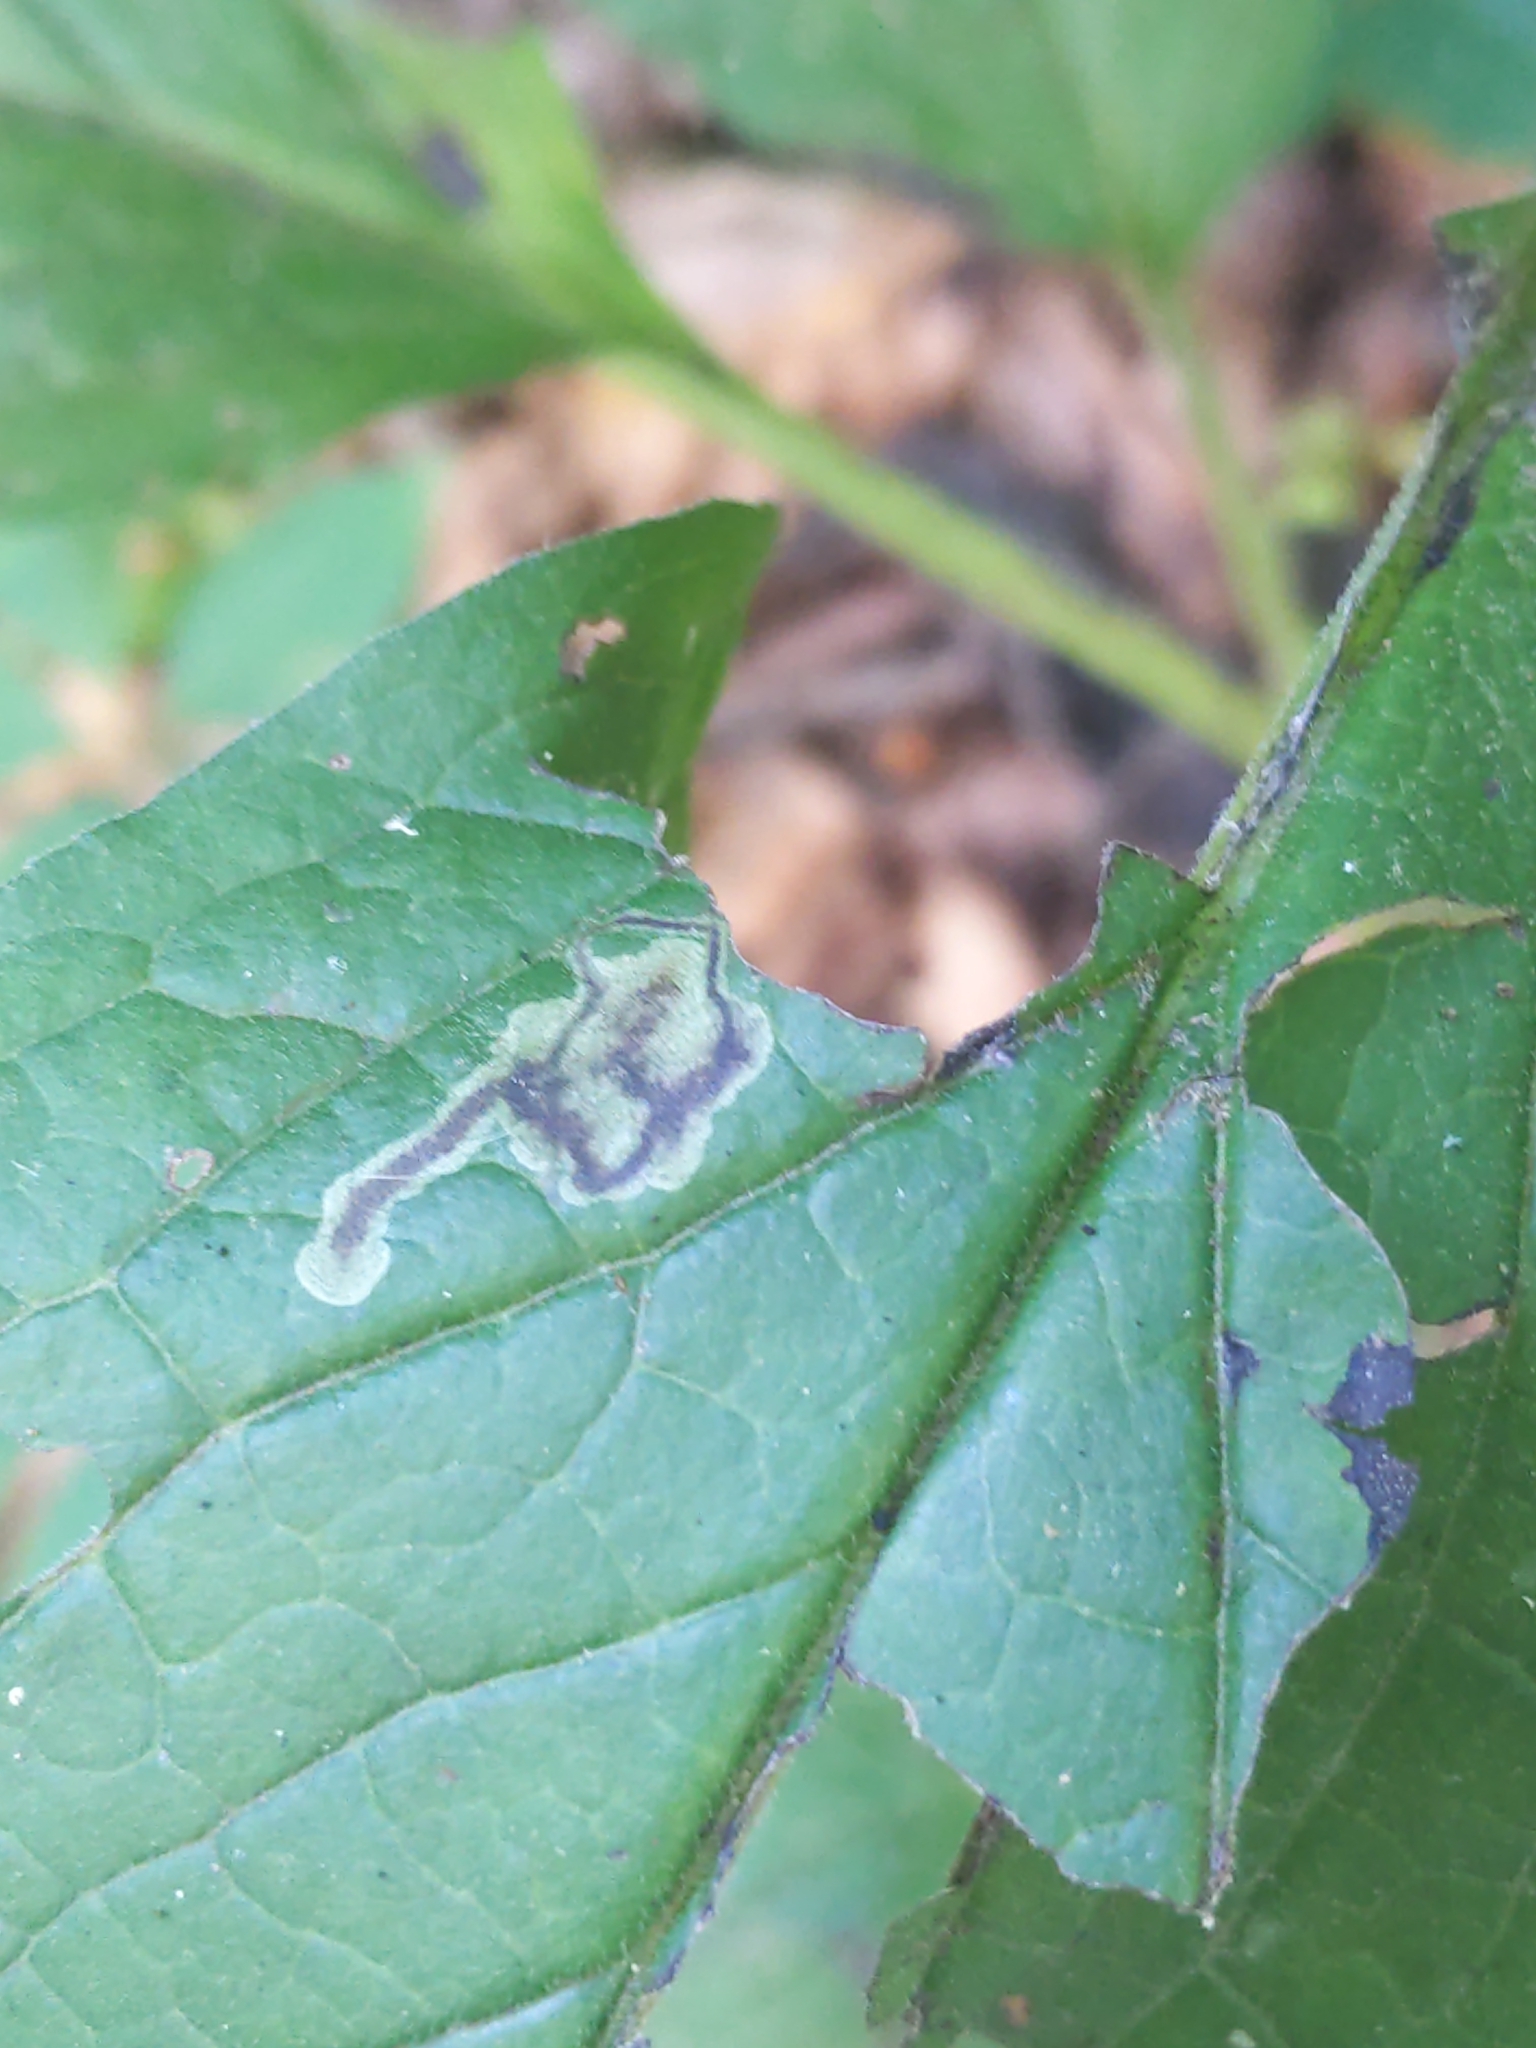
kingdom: Animalia
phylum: Arthropoda
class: Insecta
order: Diptera
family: Agromyzidae
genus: Calycomyza
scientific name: Calycomyza cynoglossi
